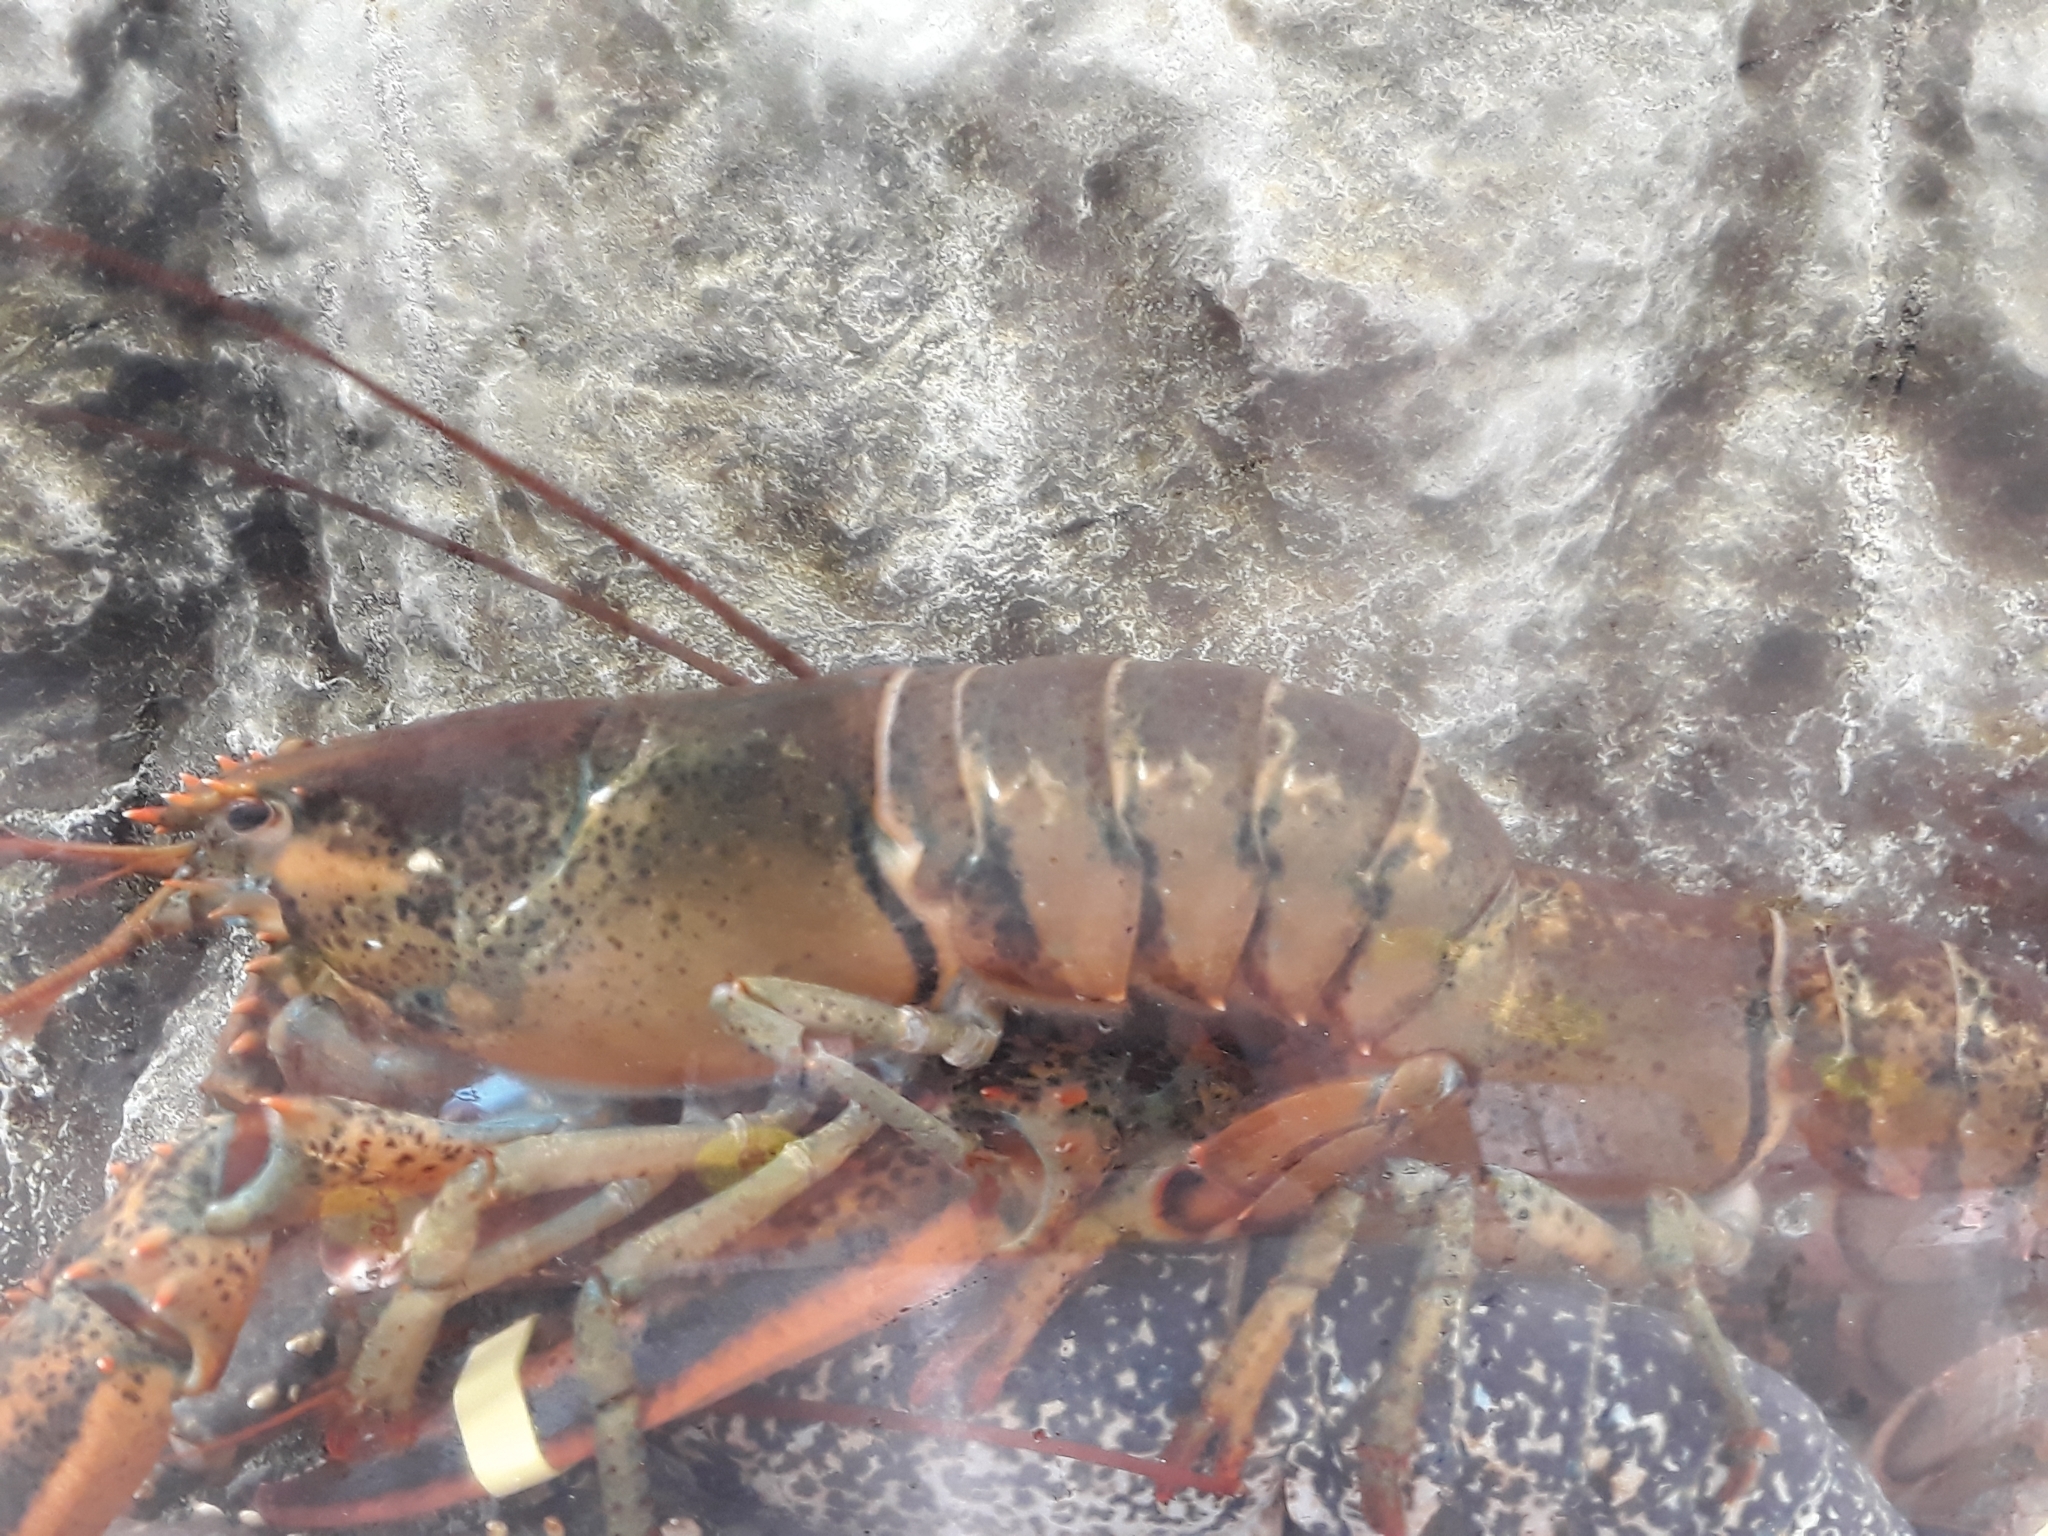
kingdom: Animalia
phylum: Arthropoda
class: Malacostraca
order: Decapoda
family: Nephropidae
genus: Homarus
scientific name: Homarus americanus
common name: American lobster
